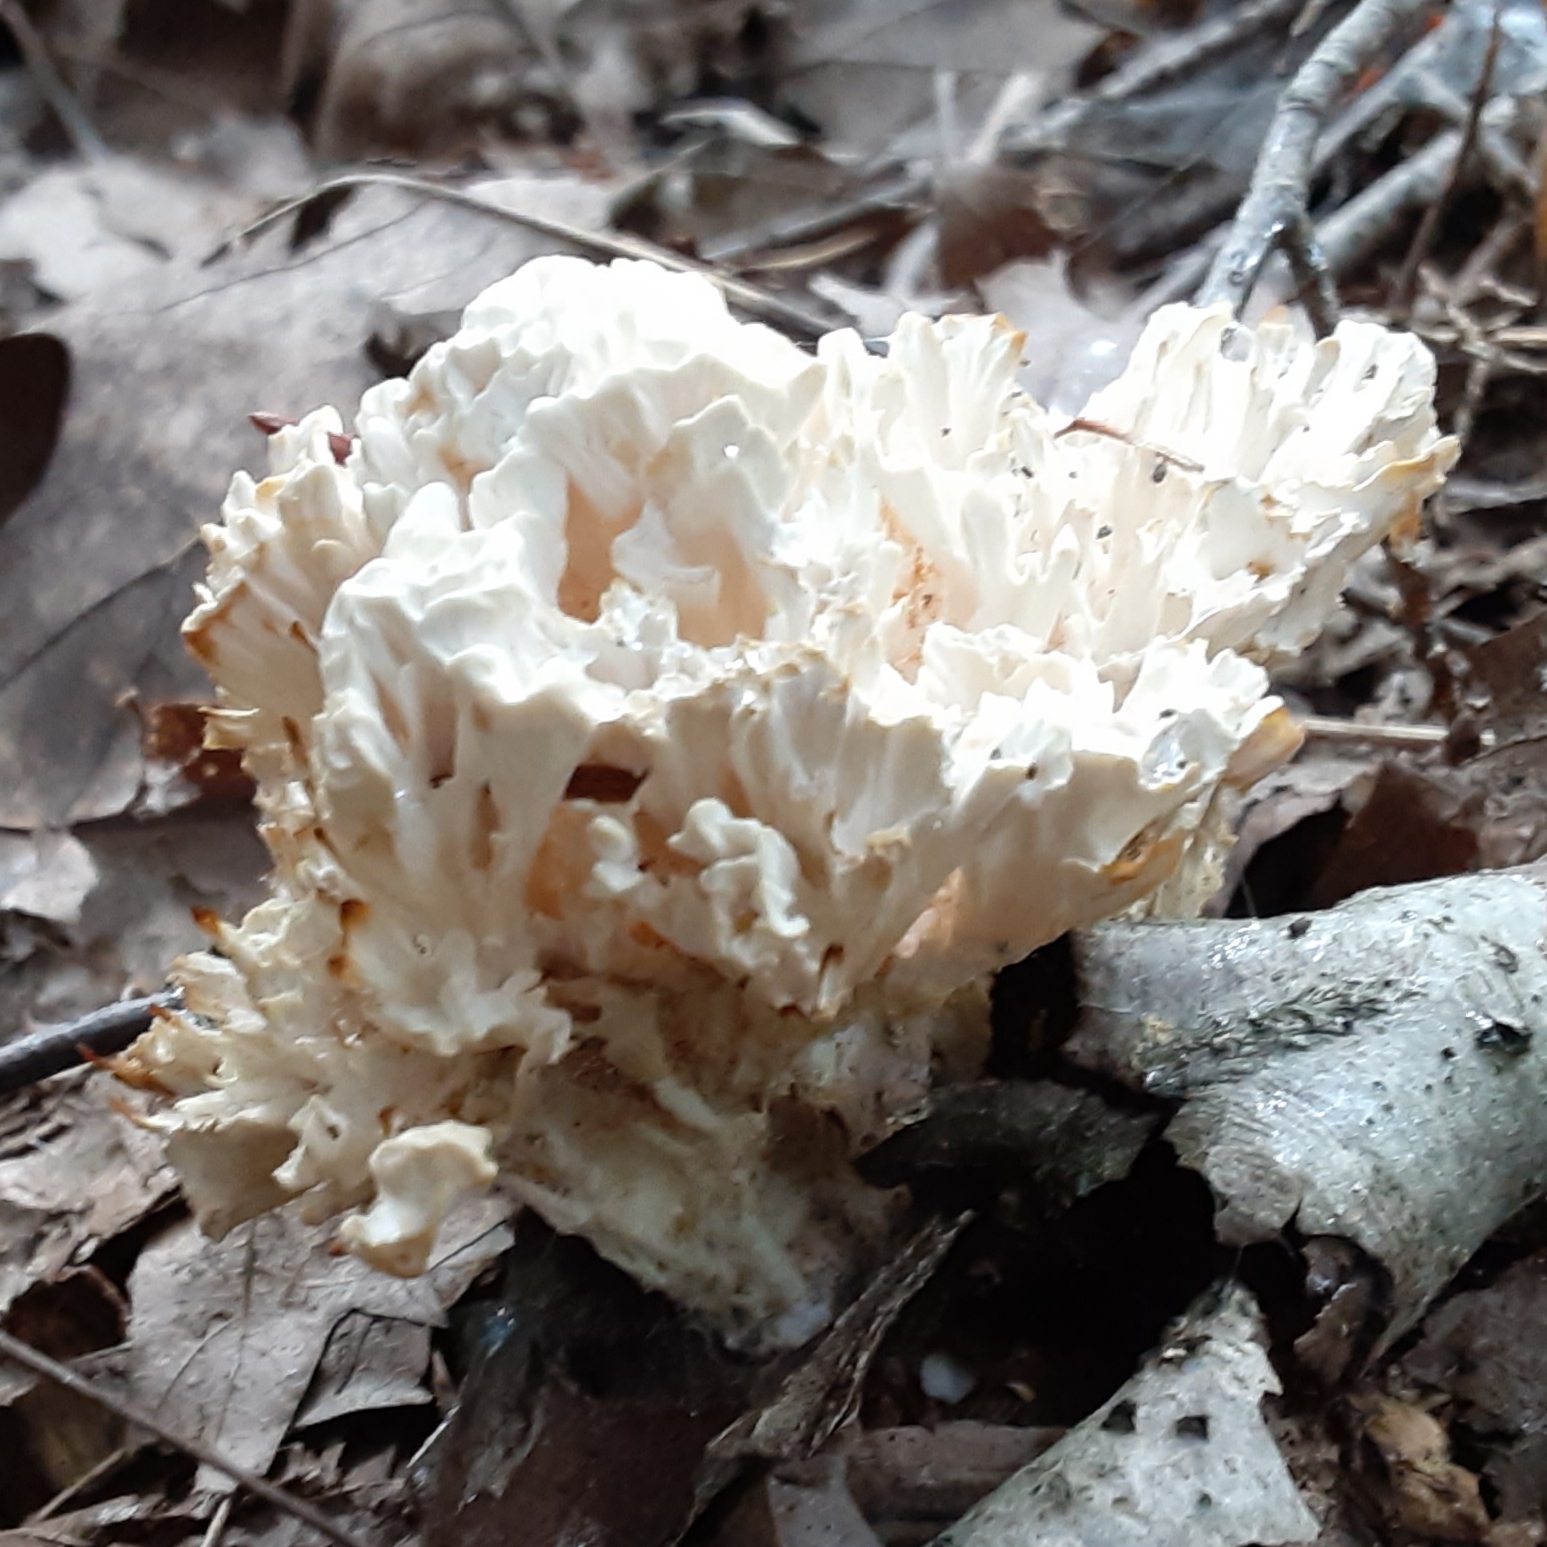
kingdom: Fungi
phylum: Basidiomycota
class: Agaricomycetes
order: Sebacinales
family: Sebacinaceae
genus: Sebacina
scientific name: Sebacina schweinitzii
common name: Jellied false coral fungus
